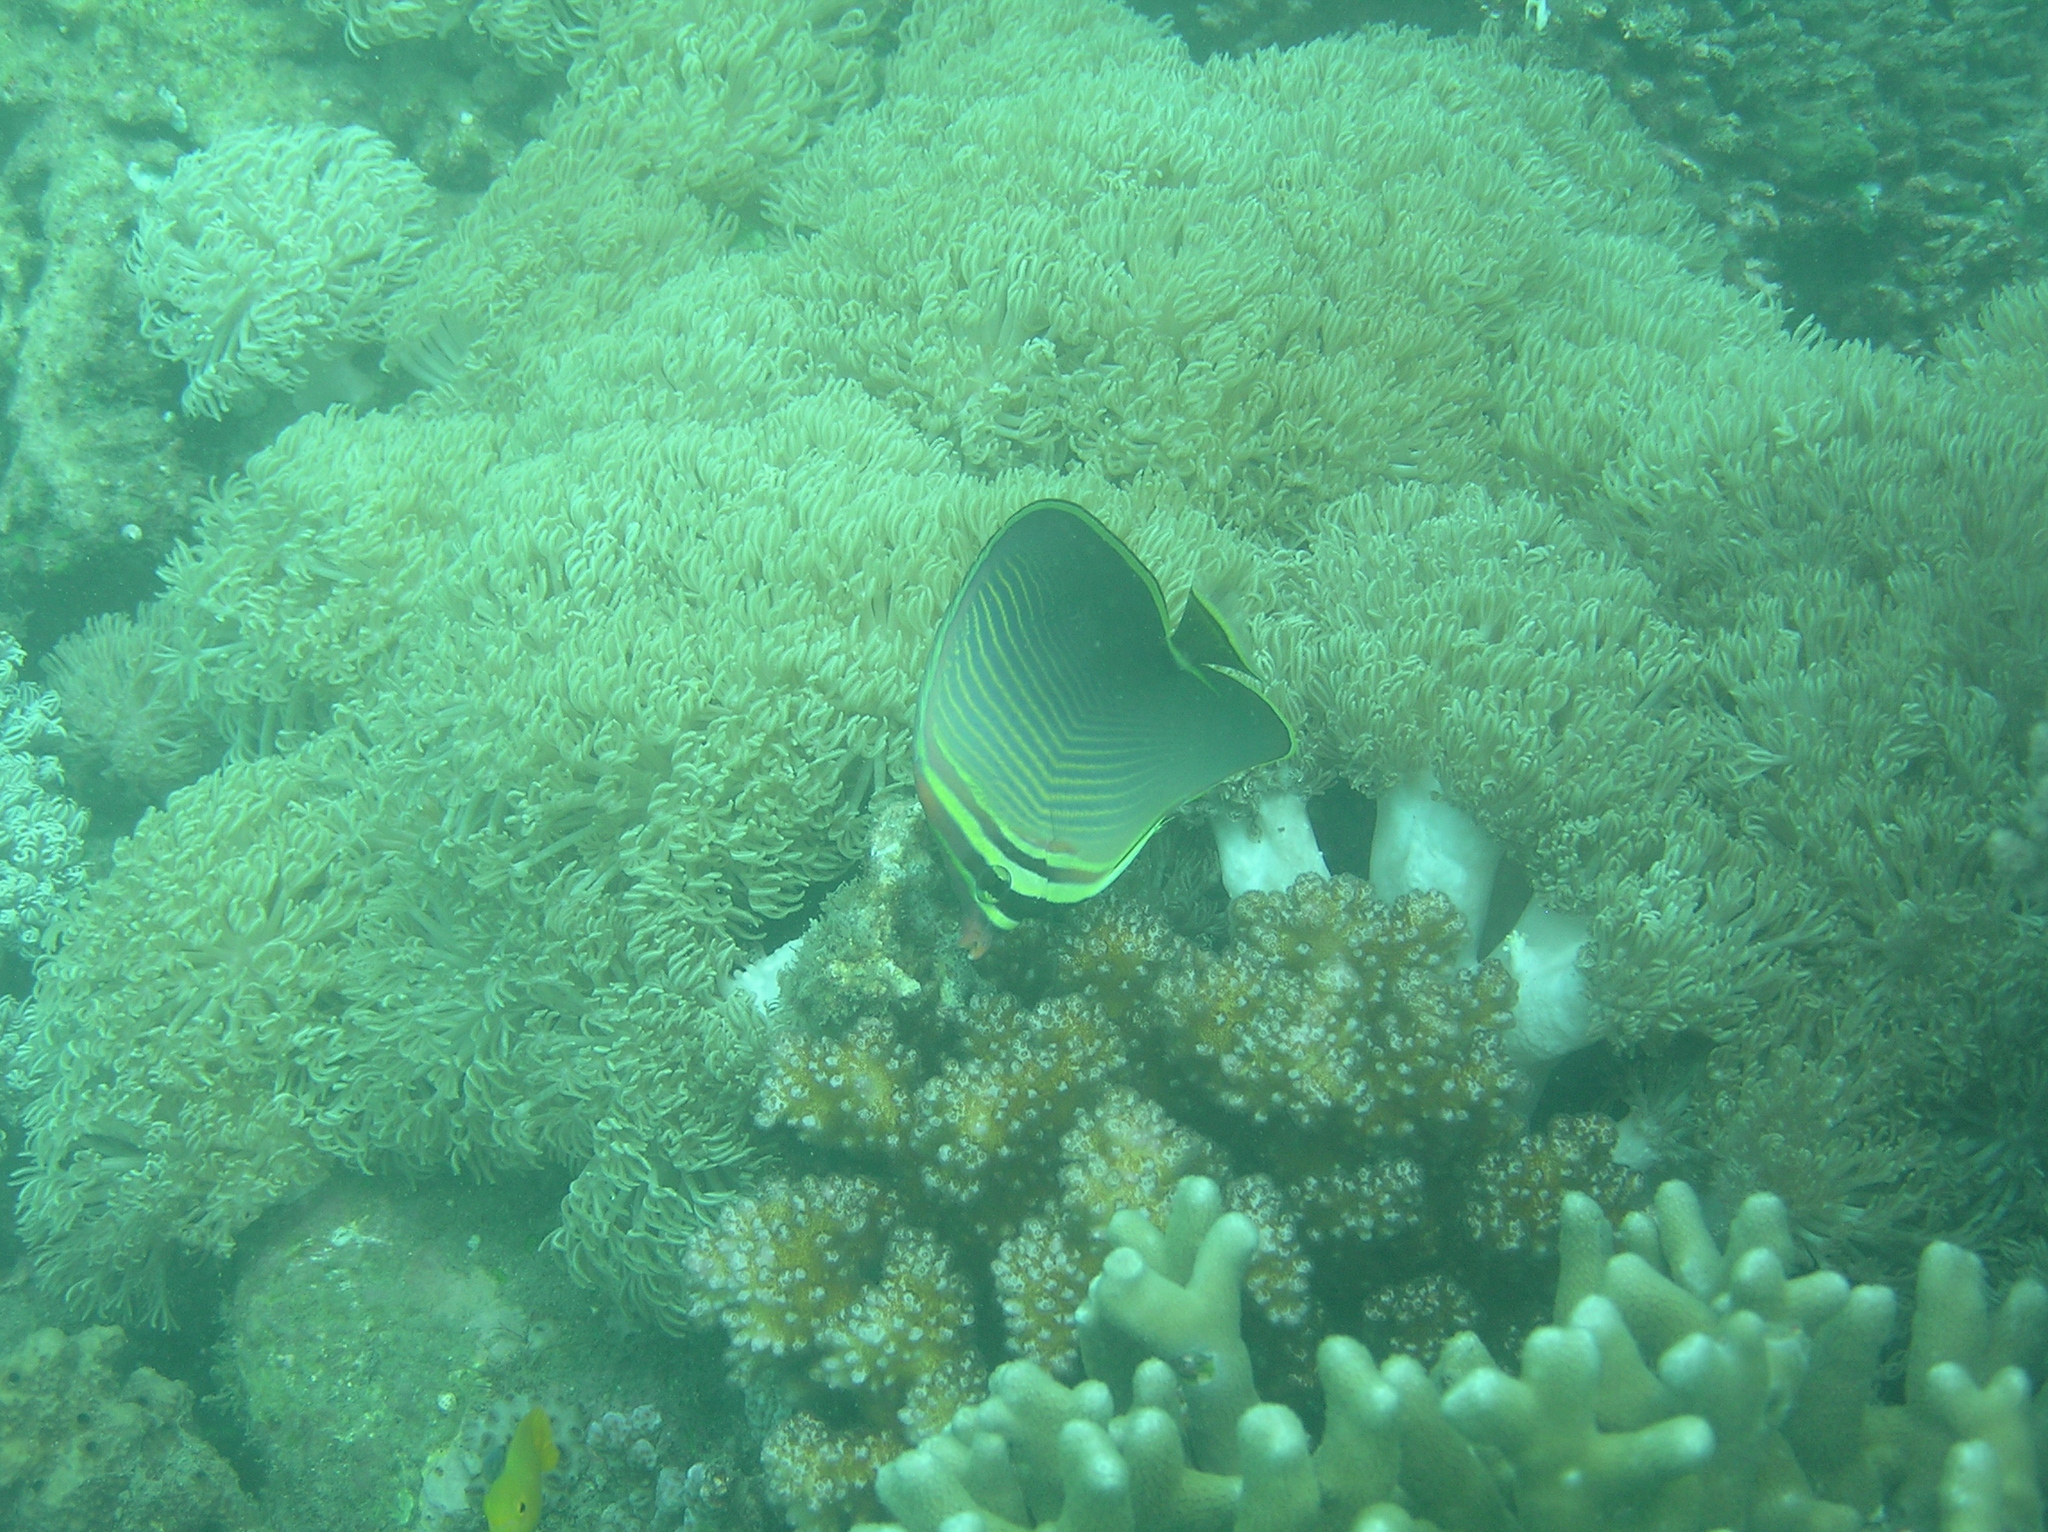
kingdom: Animalia
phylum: Chordata
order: Perciformes
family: Chaetodontidae
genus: Chaetodon
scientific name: Chaetodon baronessa
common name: Triangular butterflyfish
